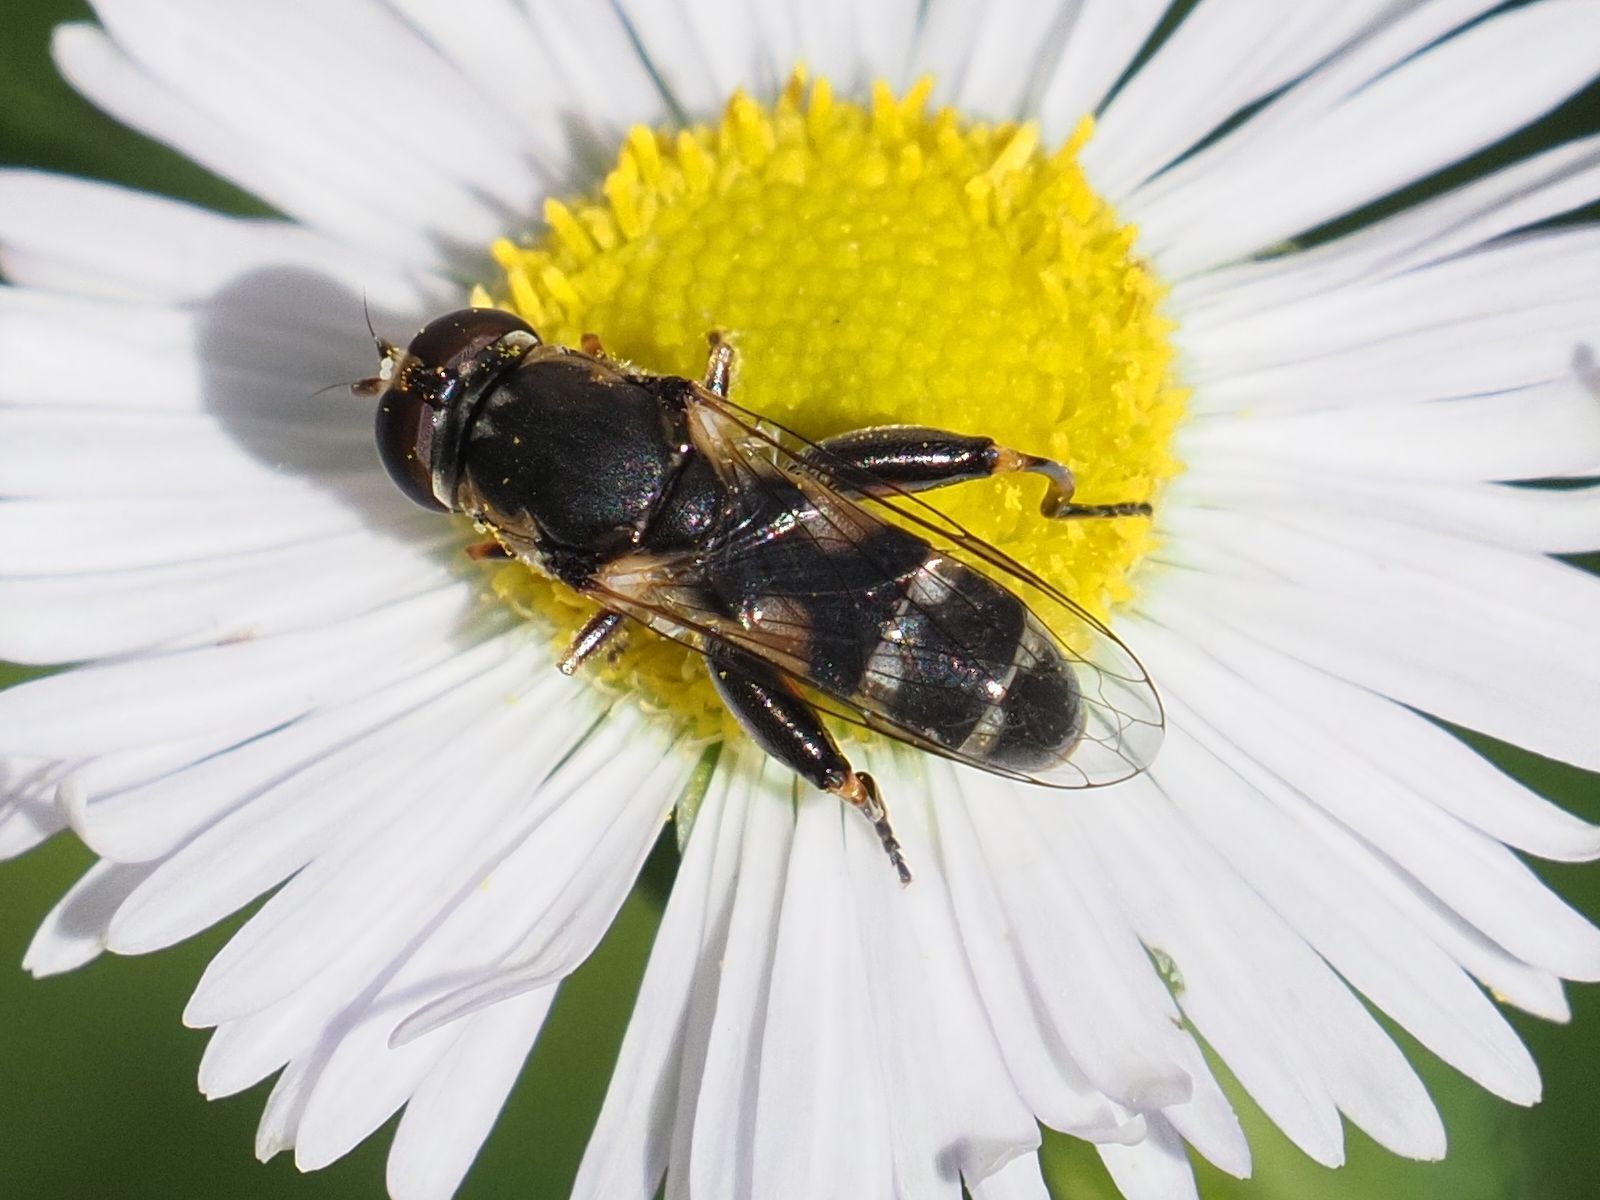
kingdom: Animalia
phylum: Arthropoda
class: Insecta
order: Diptera
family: Syrphidae
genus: Syritta
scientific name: Syritta pipiens
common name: Hover fly
